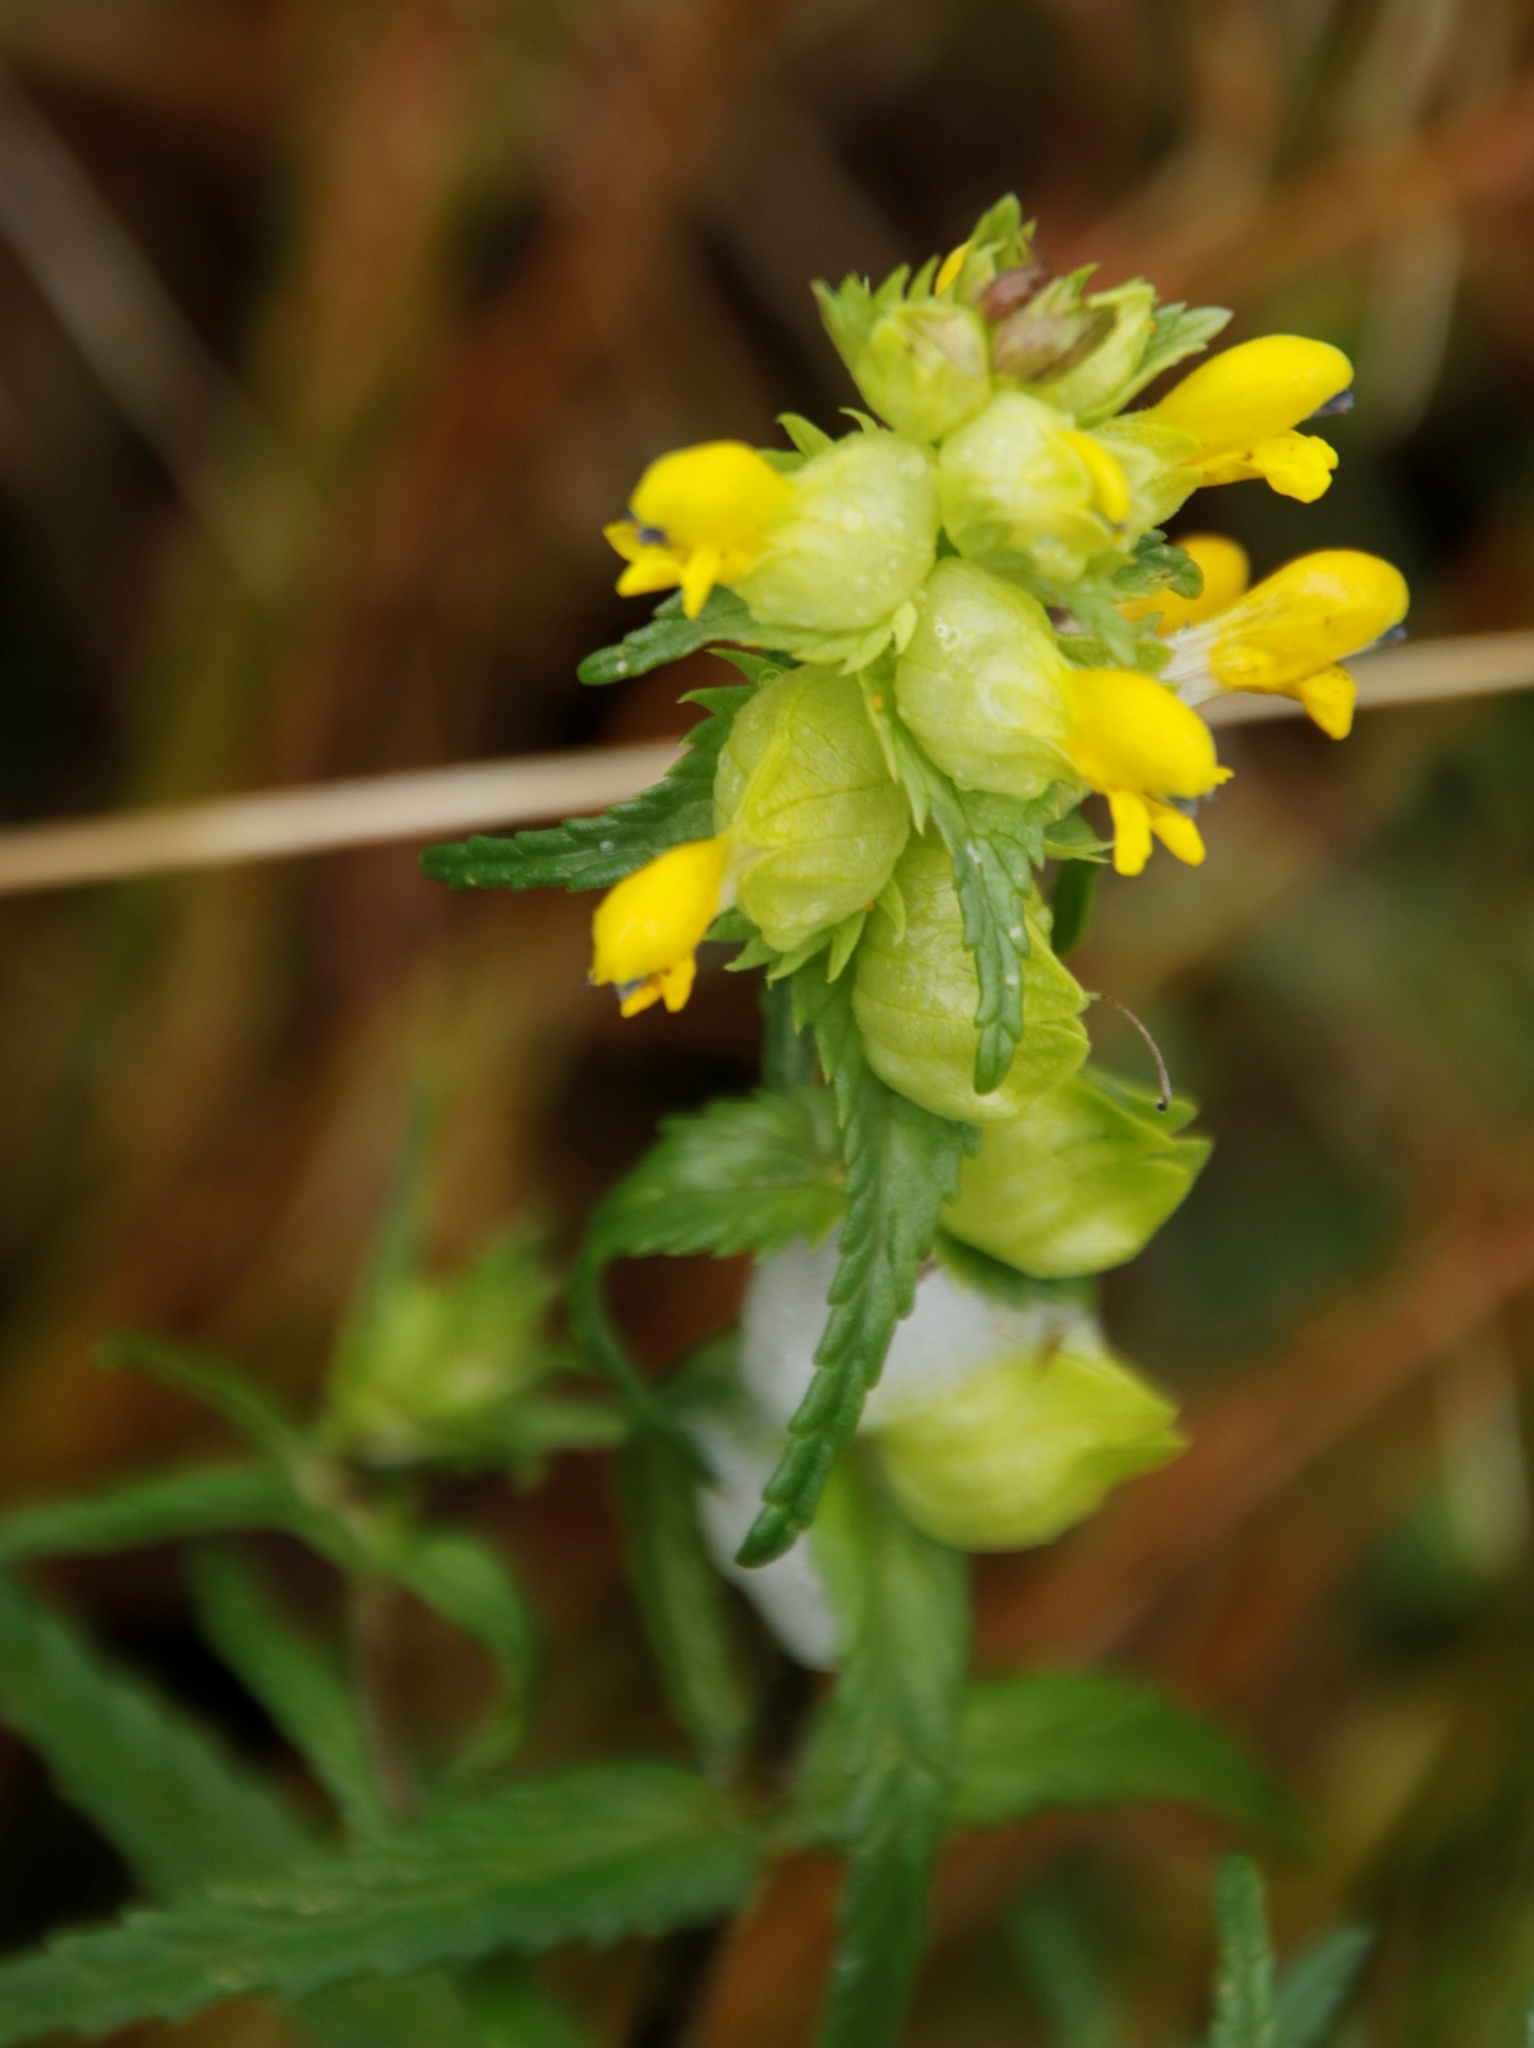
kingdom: Plantae
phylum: Tracheophyta
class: Magnoliopsida
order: Lamiales
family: Orobanchaceae
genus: Rhinanthus
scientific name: Rhinanthus minor
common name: Yellow-rattle
